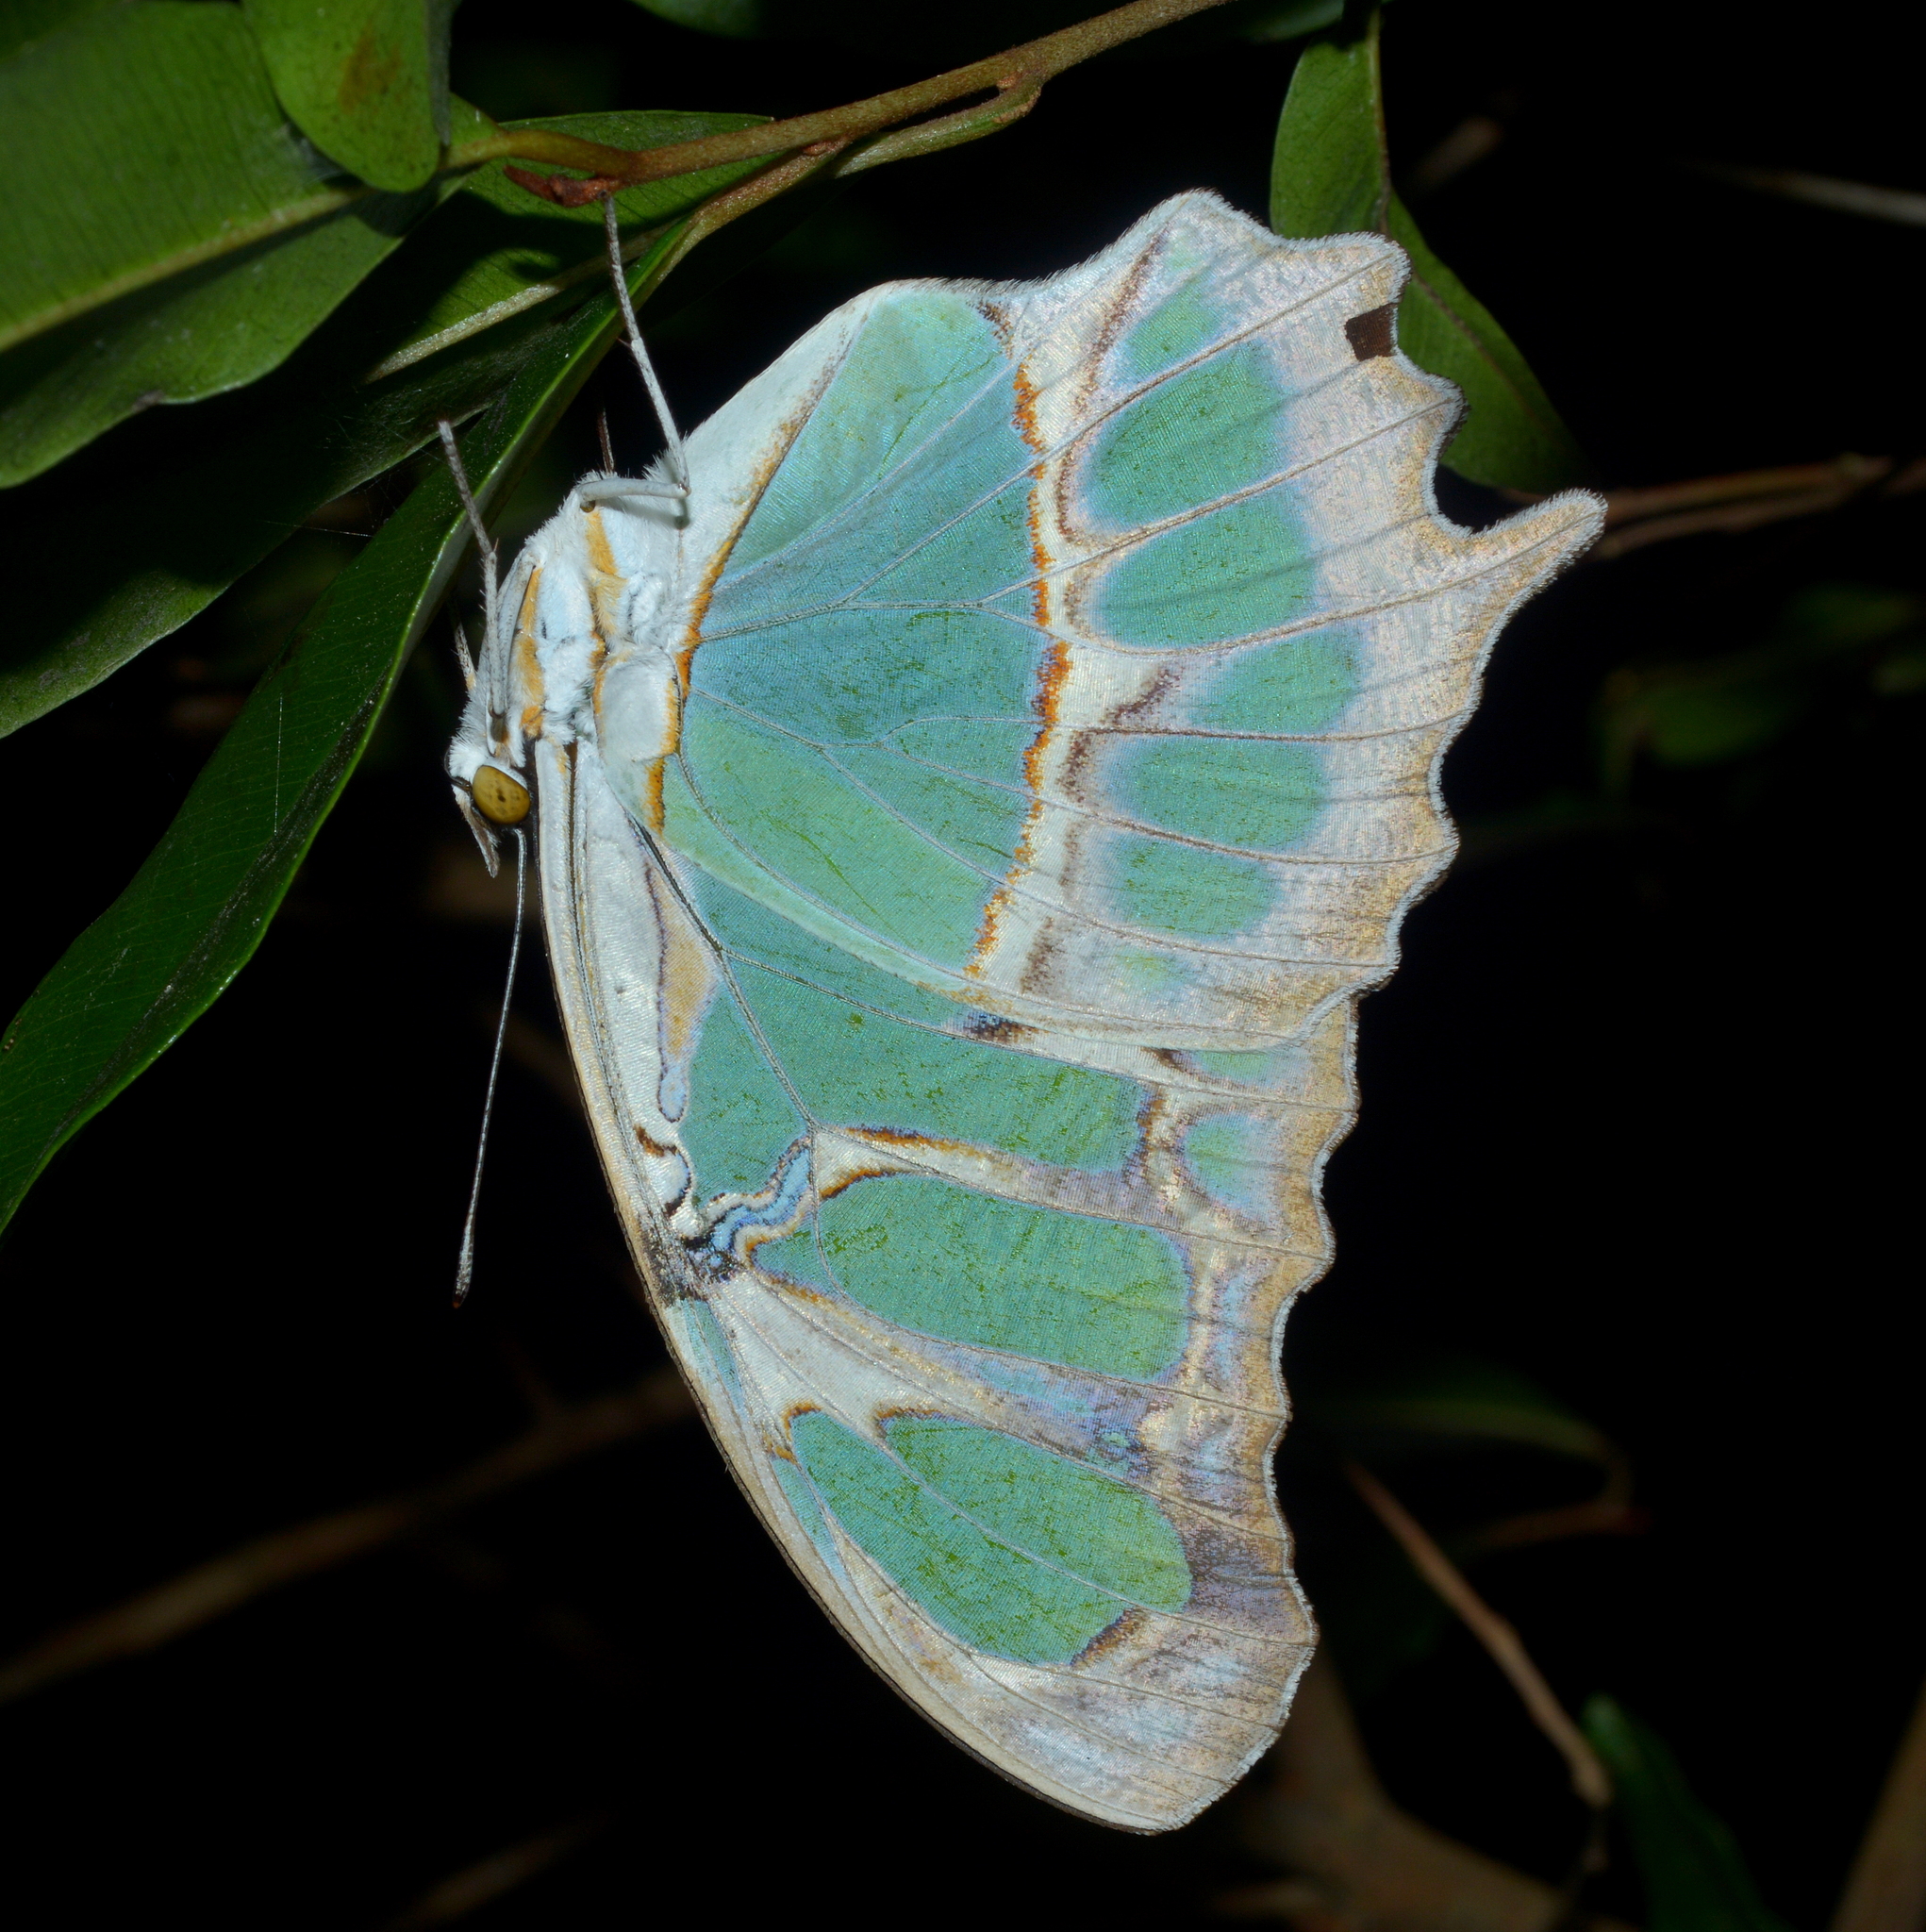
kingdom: Animalia
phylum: Arthropoda
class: Insecta
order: Lepidoptera
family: Nymphalidae
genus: Siproeta
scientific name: Siproeta stelenes
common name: Malachite
